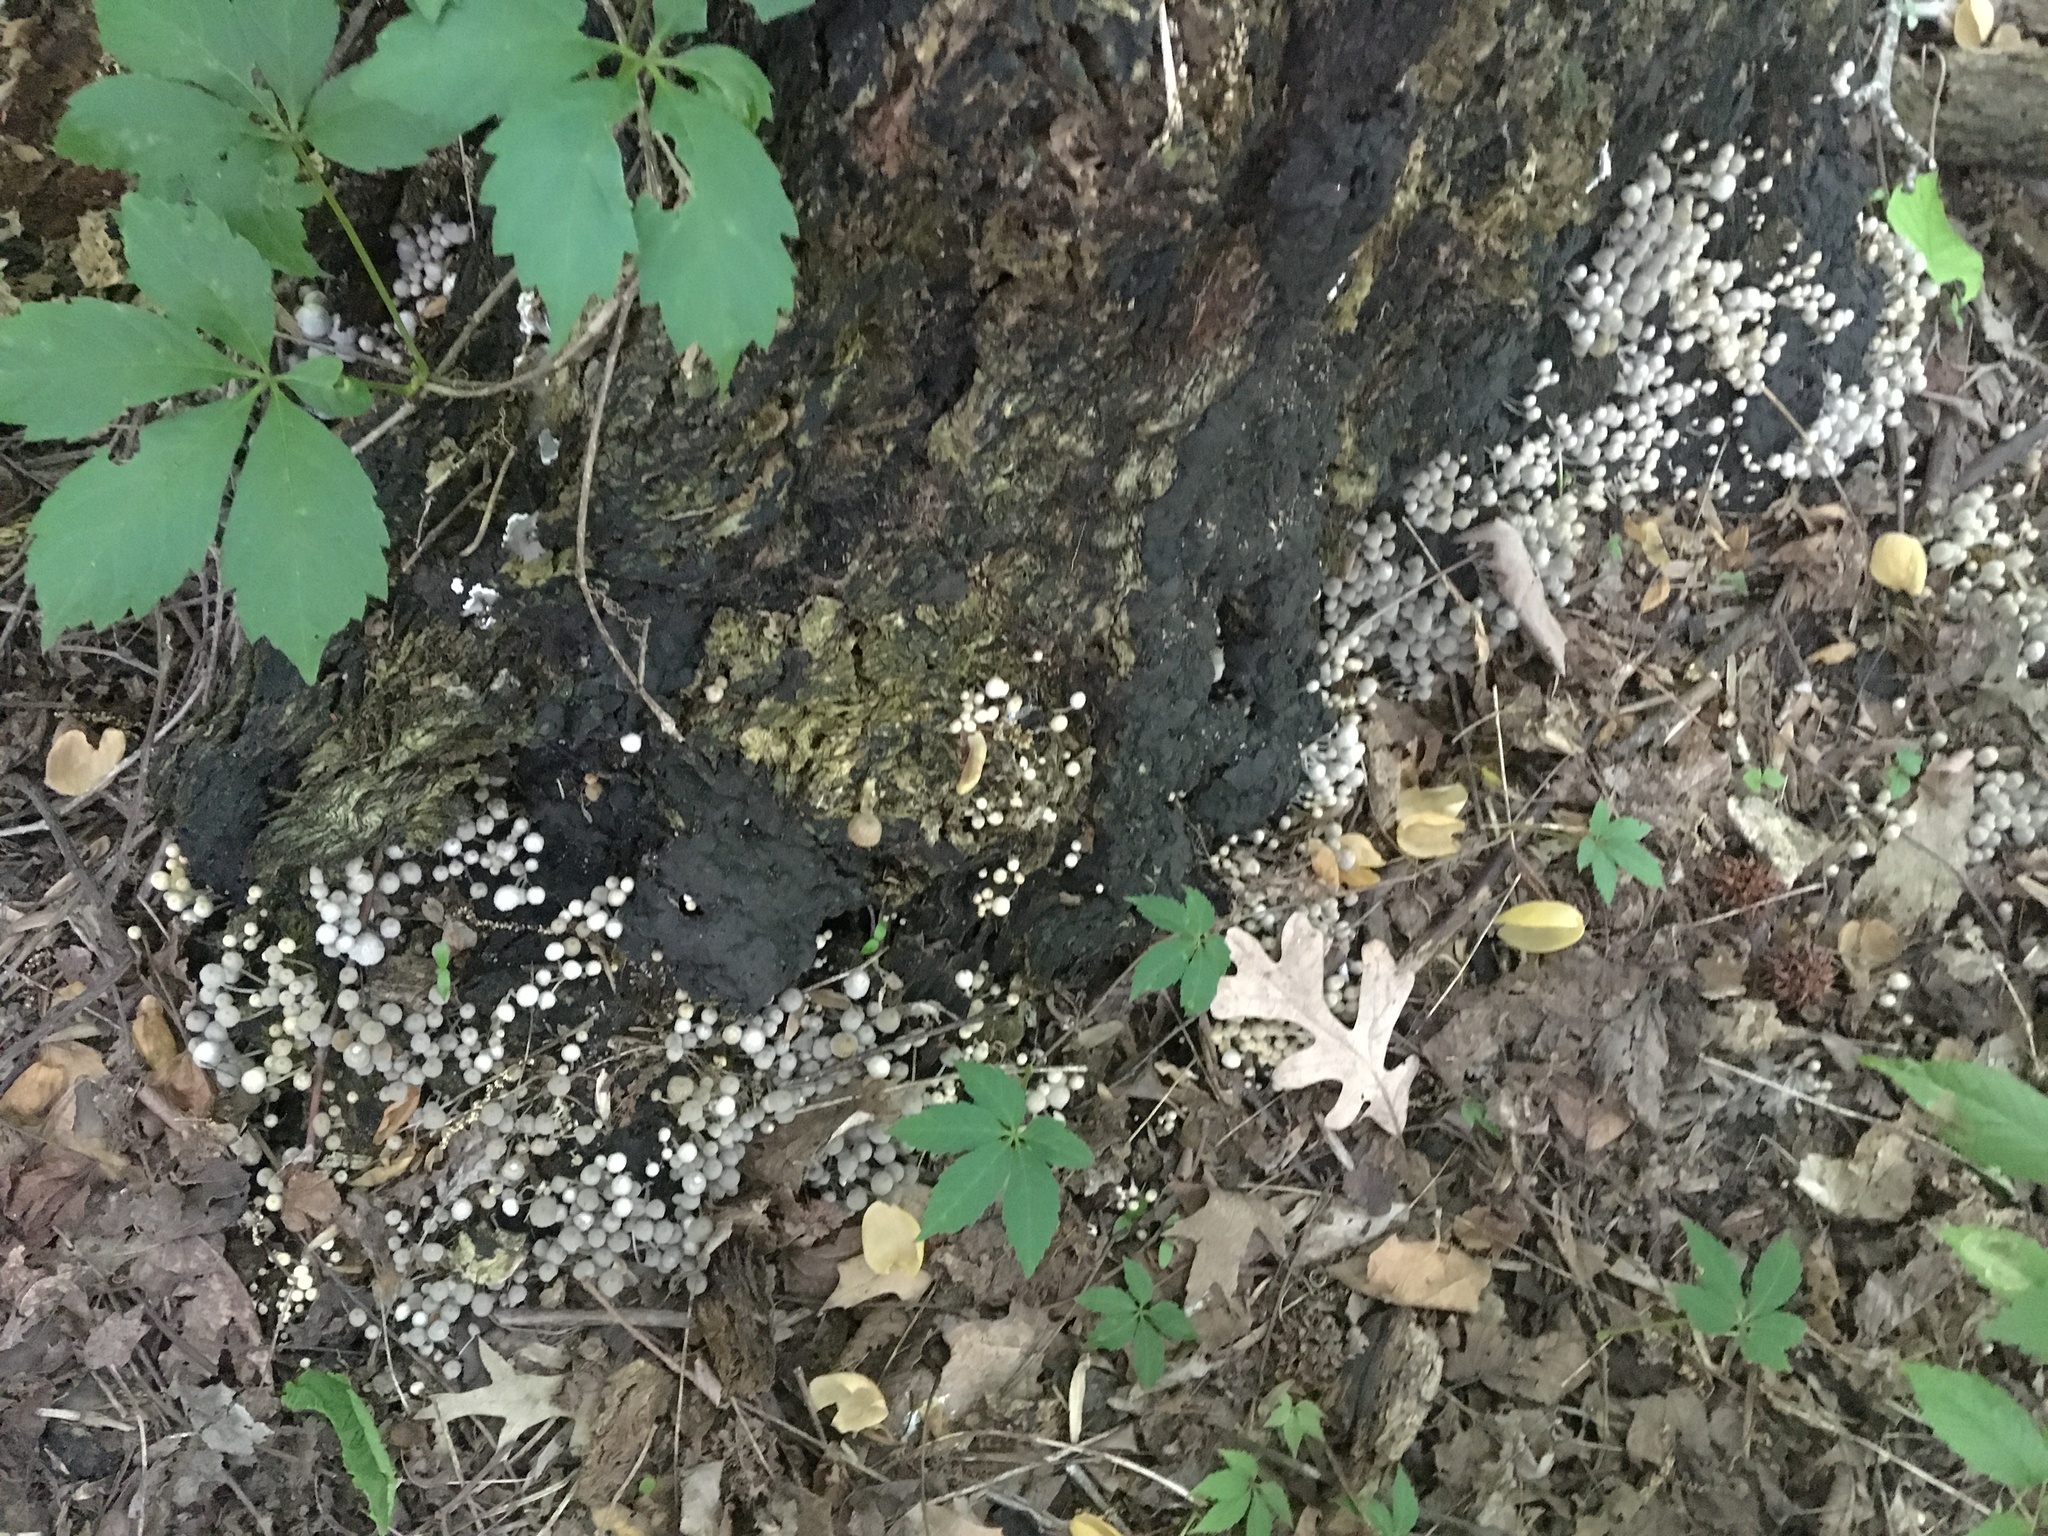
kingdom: Fungi
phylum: Basidiomycota
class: Agaricomycetes
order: Agaricales
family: Psathyrellaceae
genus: Coprinellus
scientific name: Coprinellus disseminatus
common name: Fairies' bonnets
